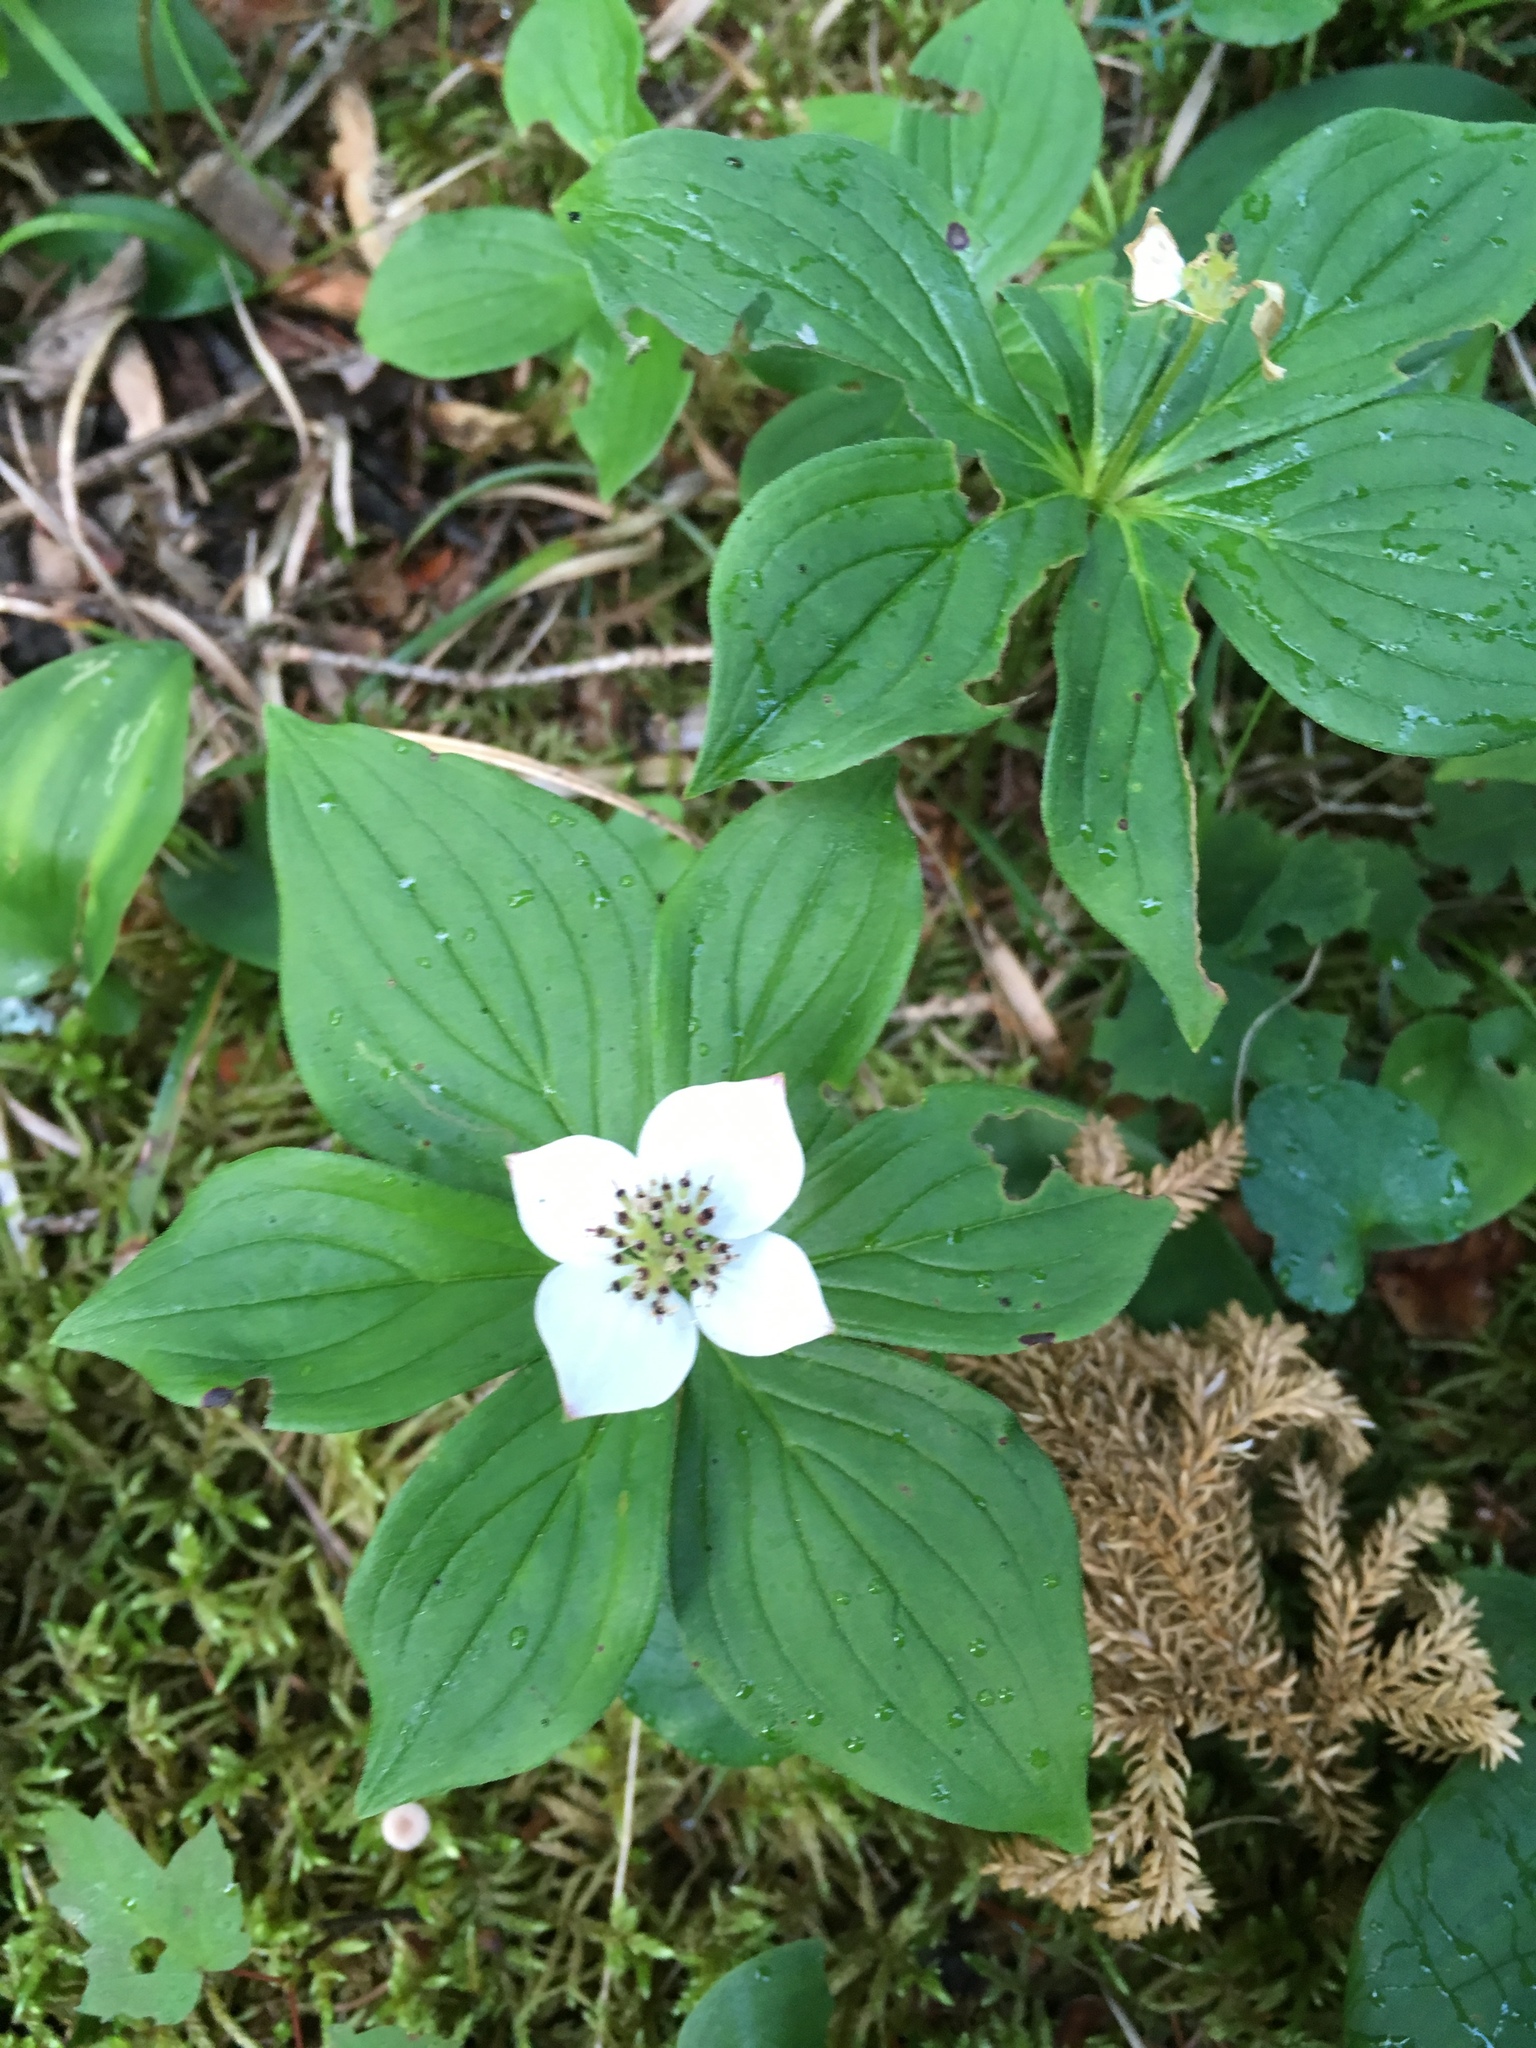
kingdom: Plantae
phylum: Tracheophyta
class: Magnoliopsida
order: Cornales
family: Cornaceae
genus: Cornus
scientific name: Cornus canadensis
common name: Creeping dogwood
